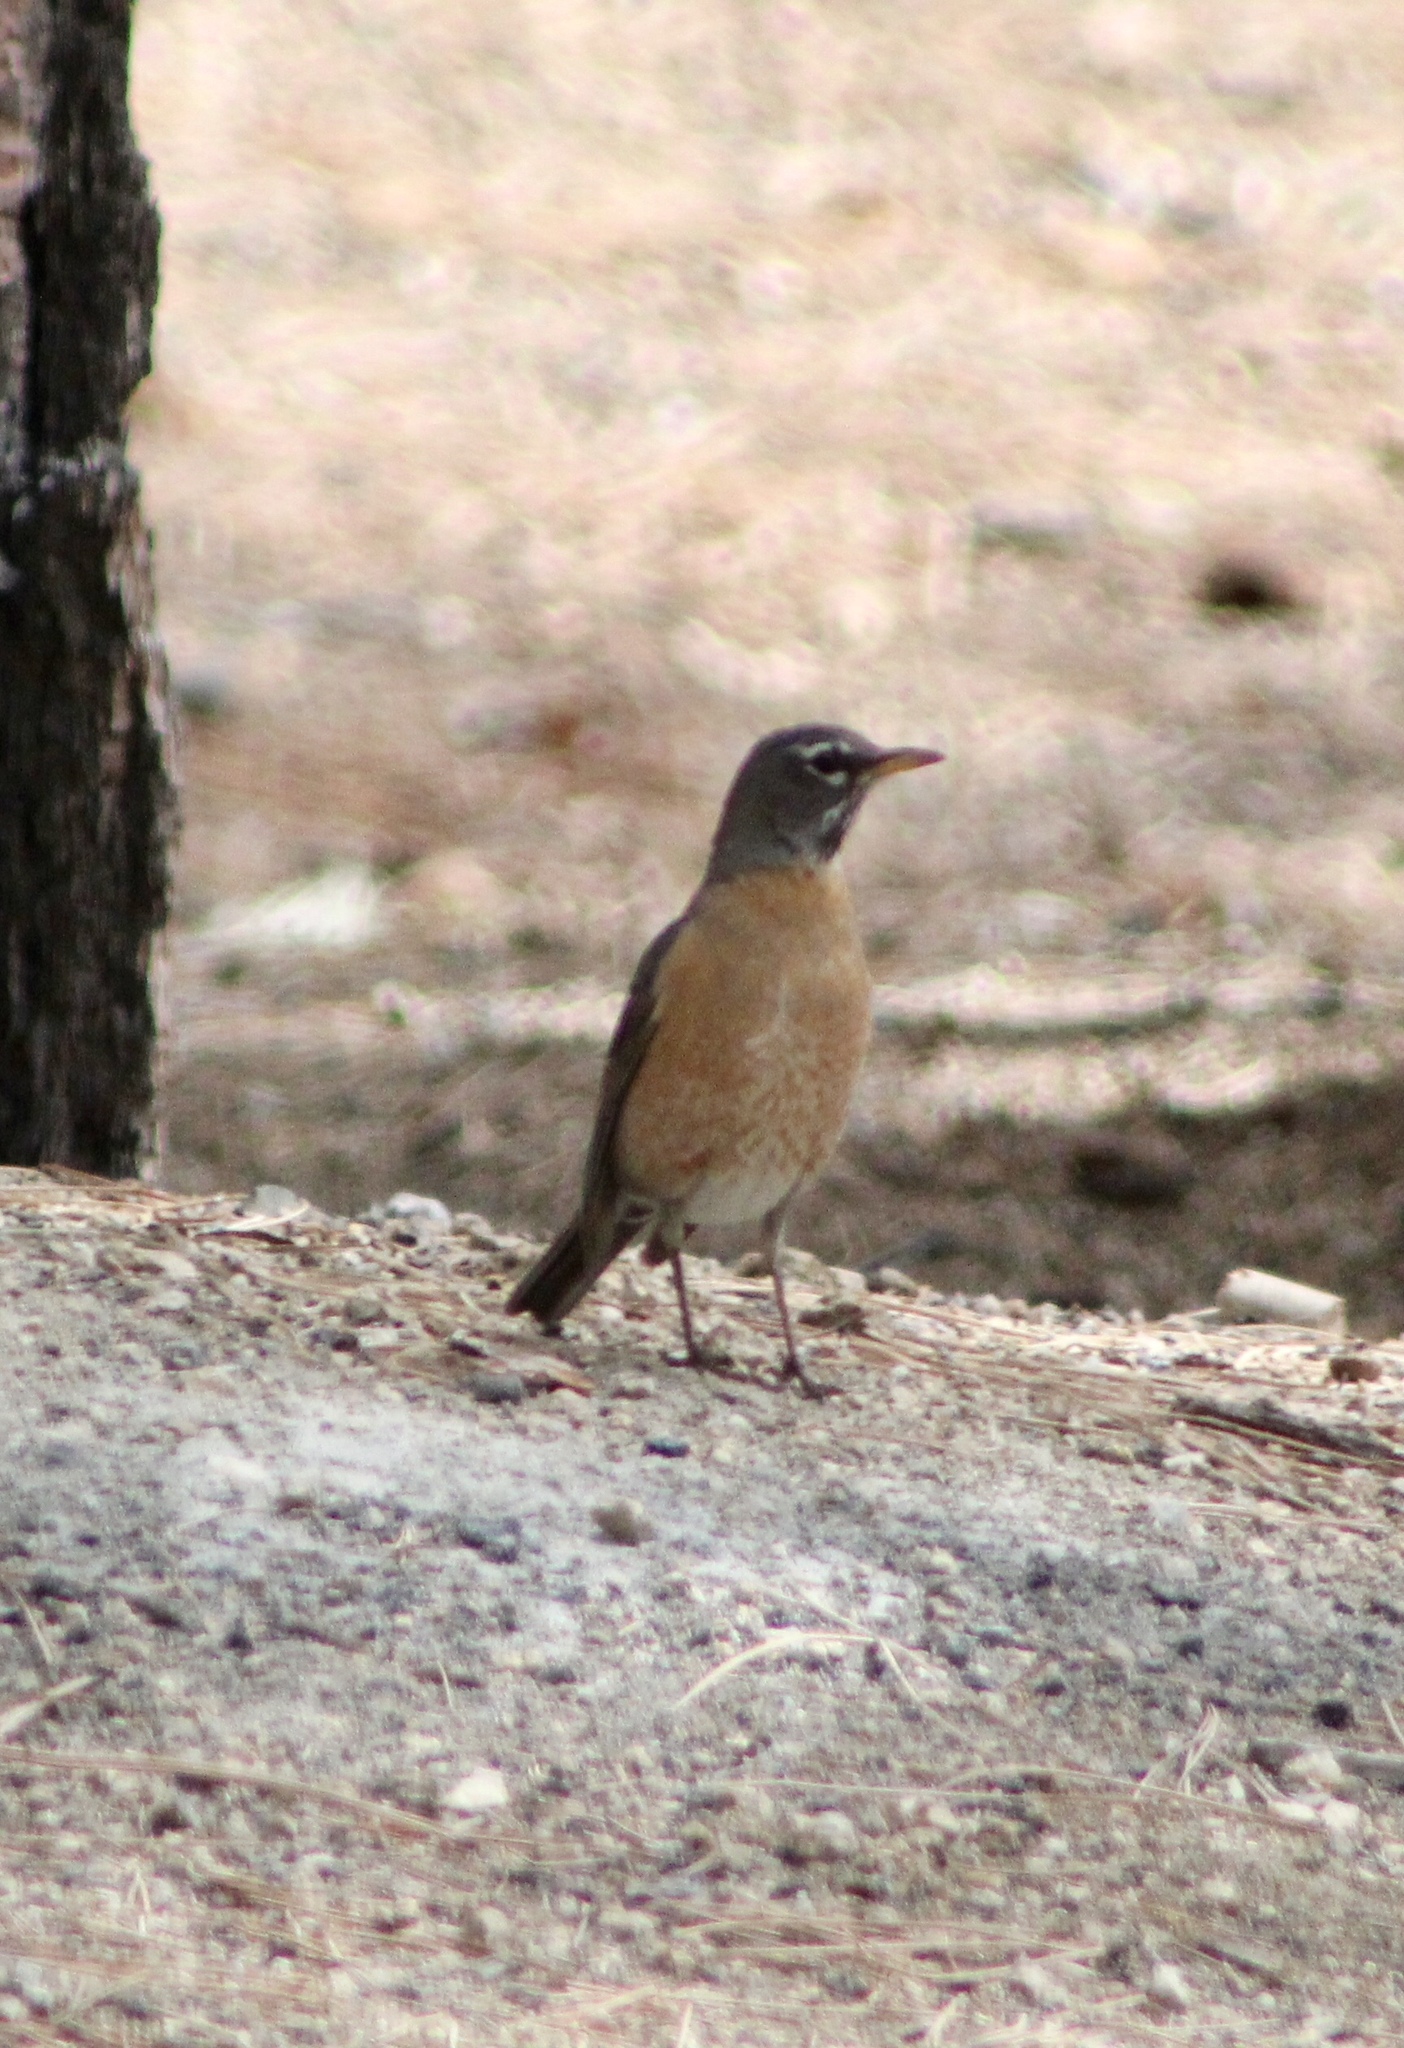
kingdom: Animalia
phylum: Chordata
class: Aves
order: Passeriformes
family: Turdidae
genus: Turdus
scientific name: Turdus migratorius
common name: American robin
